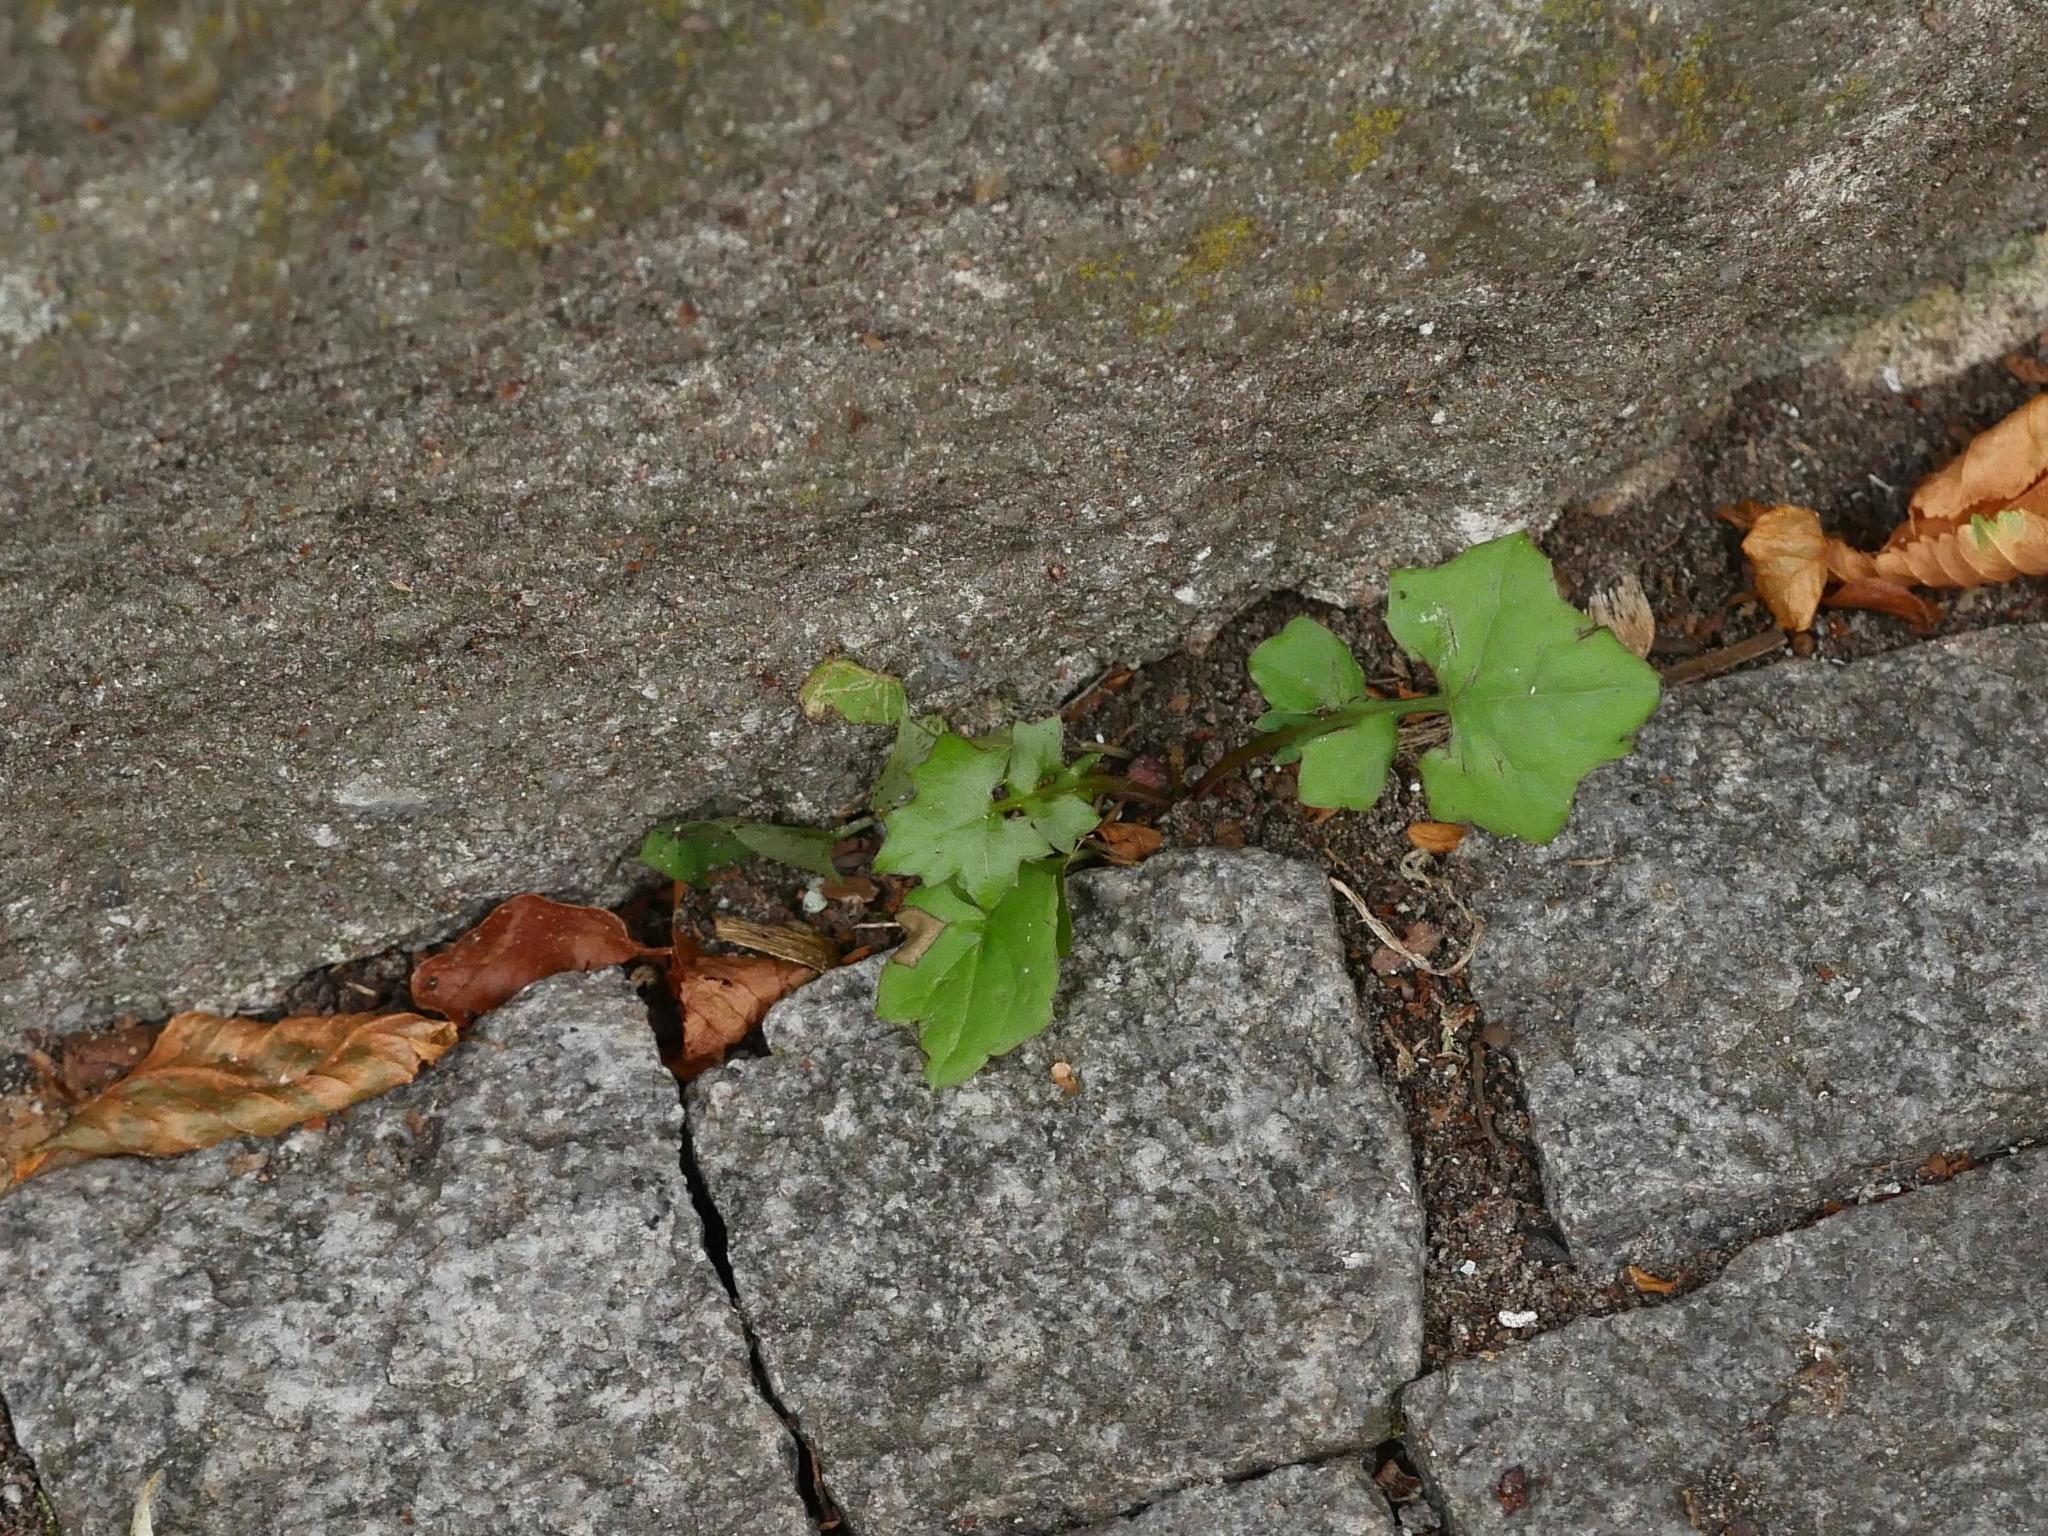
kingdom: Plantae
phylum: Tracheophyta
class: Magnoliopsida
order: Asterales
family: Asteraceae
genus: Mycelis
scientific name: Mycelis muralis
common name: Wall lettuce
